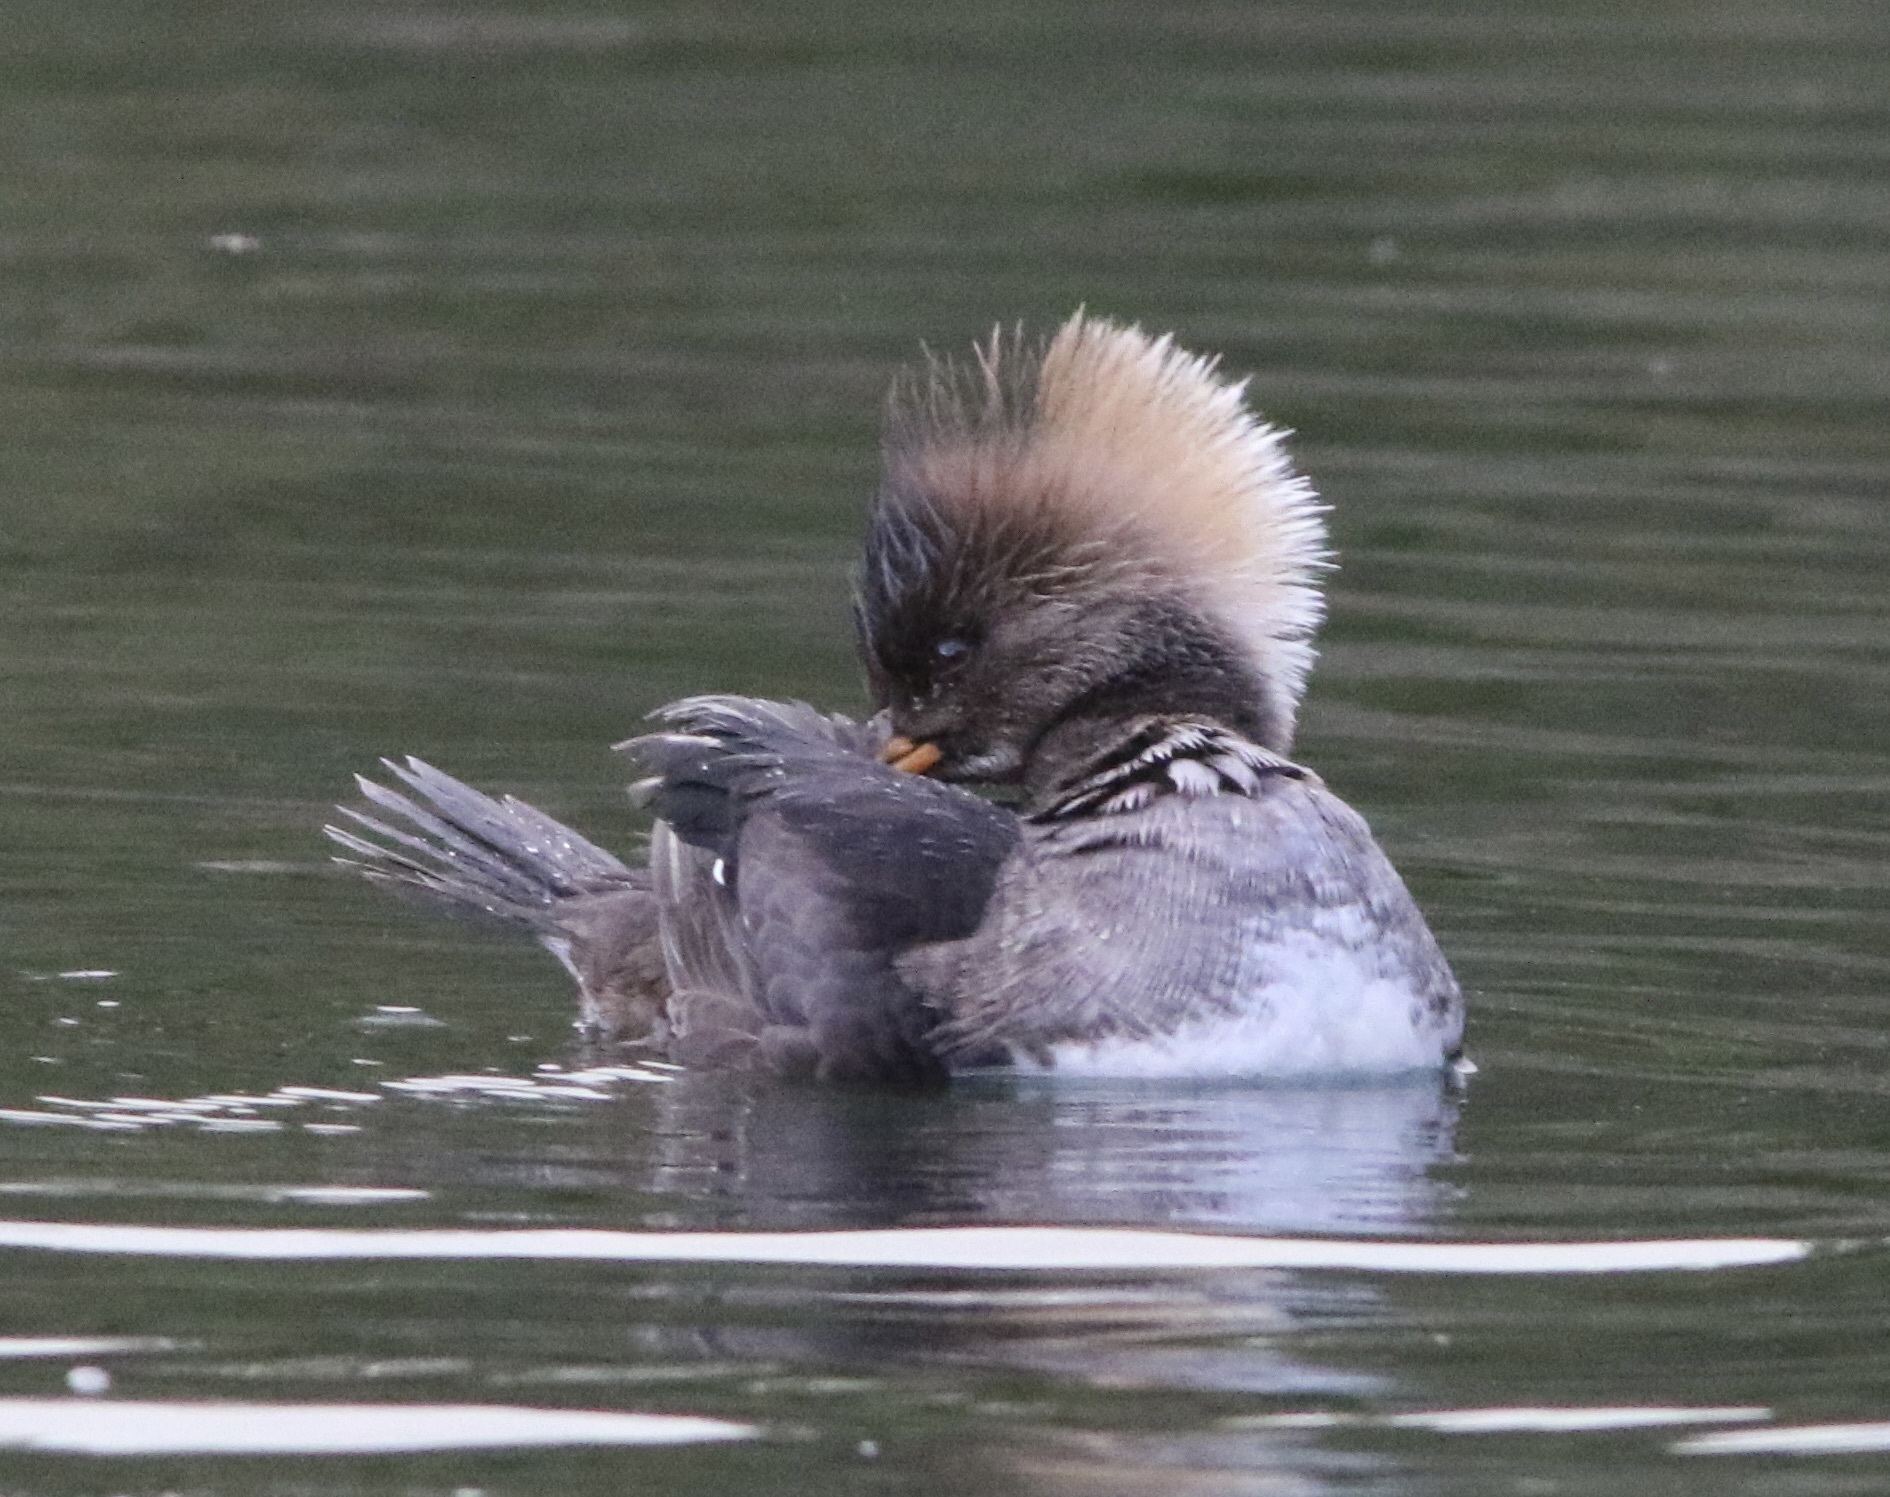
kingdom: Animalia
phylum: Chordata
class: Aves
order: Anseriformes
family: Anatidae
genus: Lophodytes
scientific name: Lophodytes cucullatus
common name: Hooded merganser
